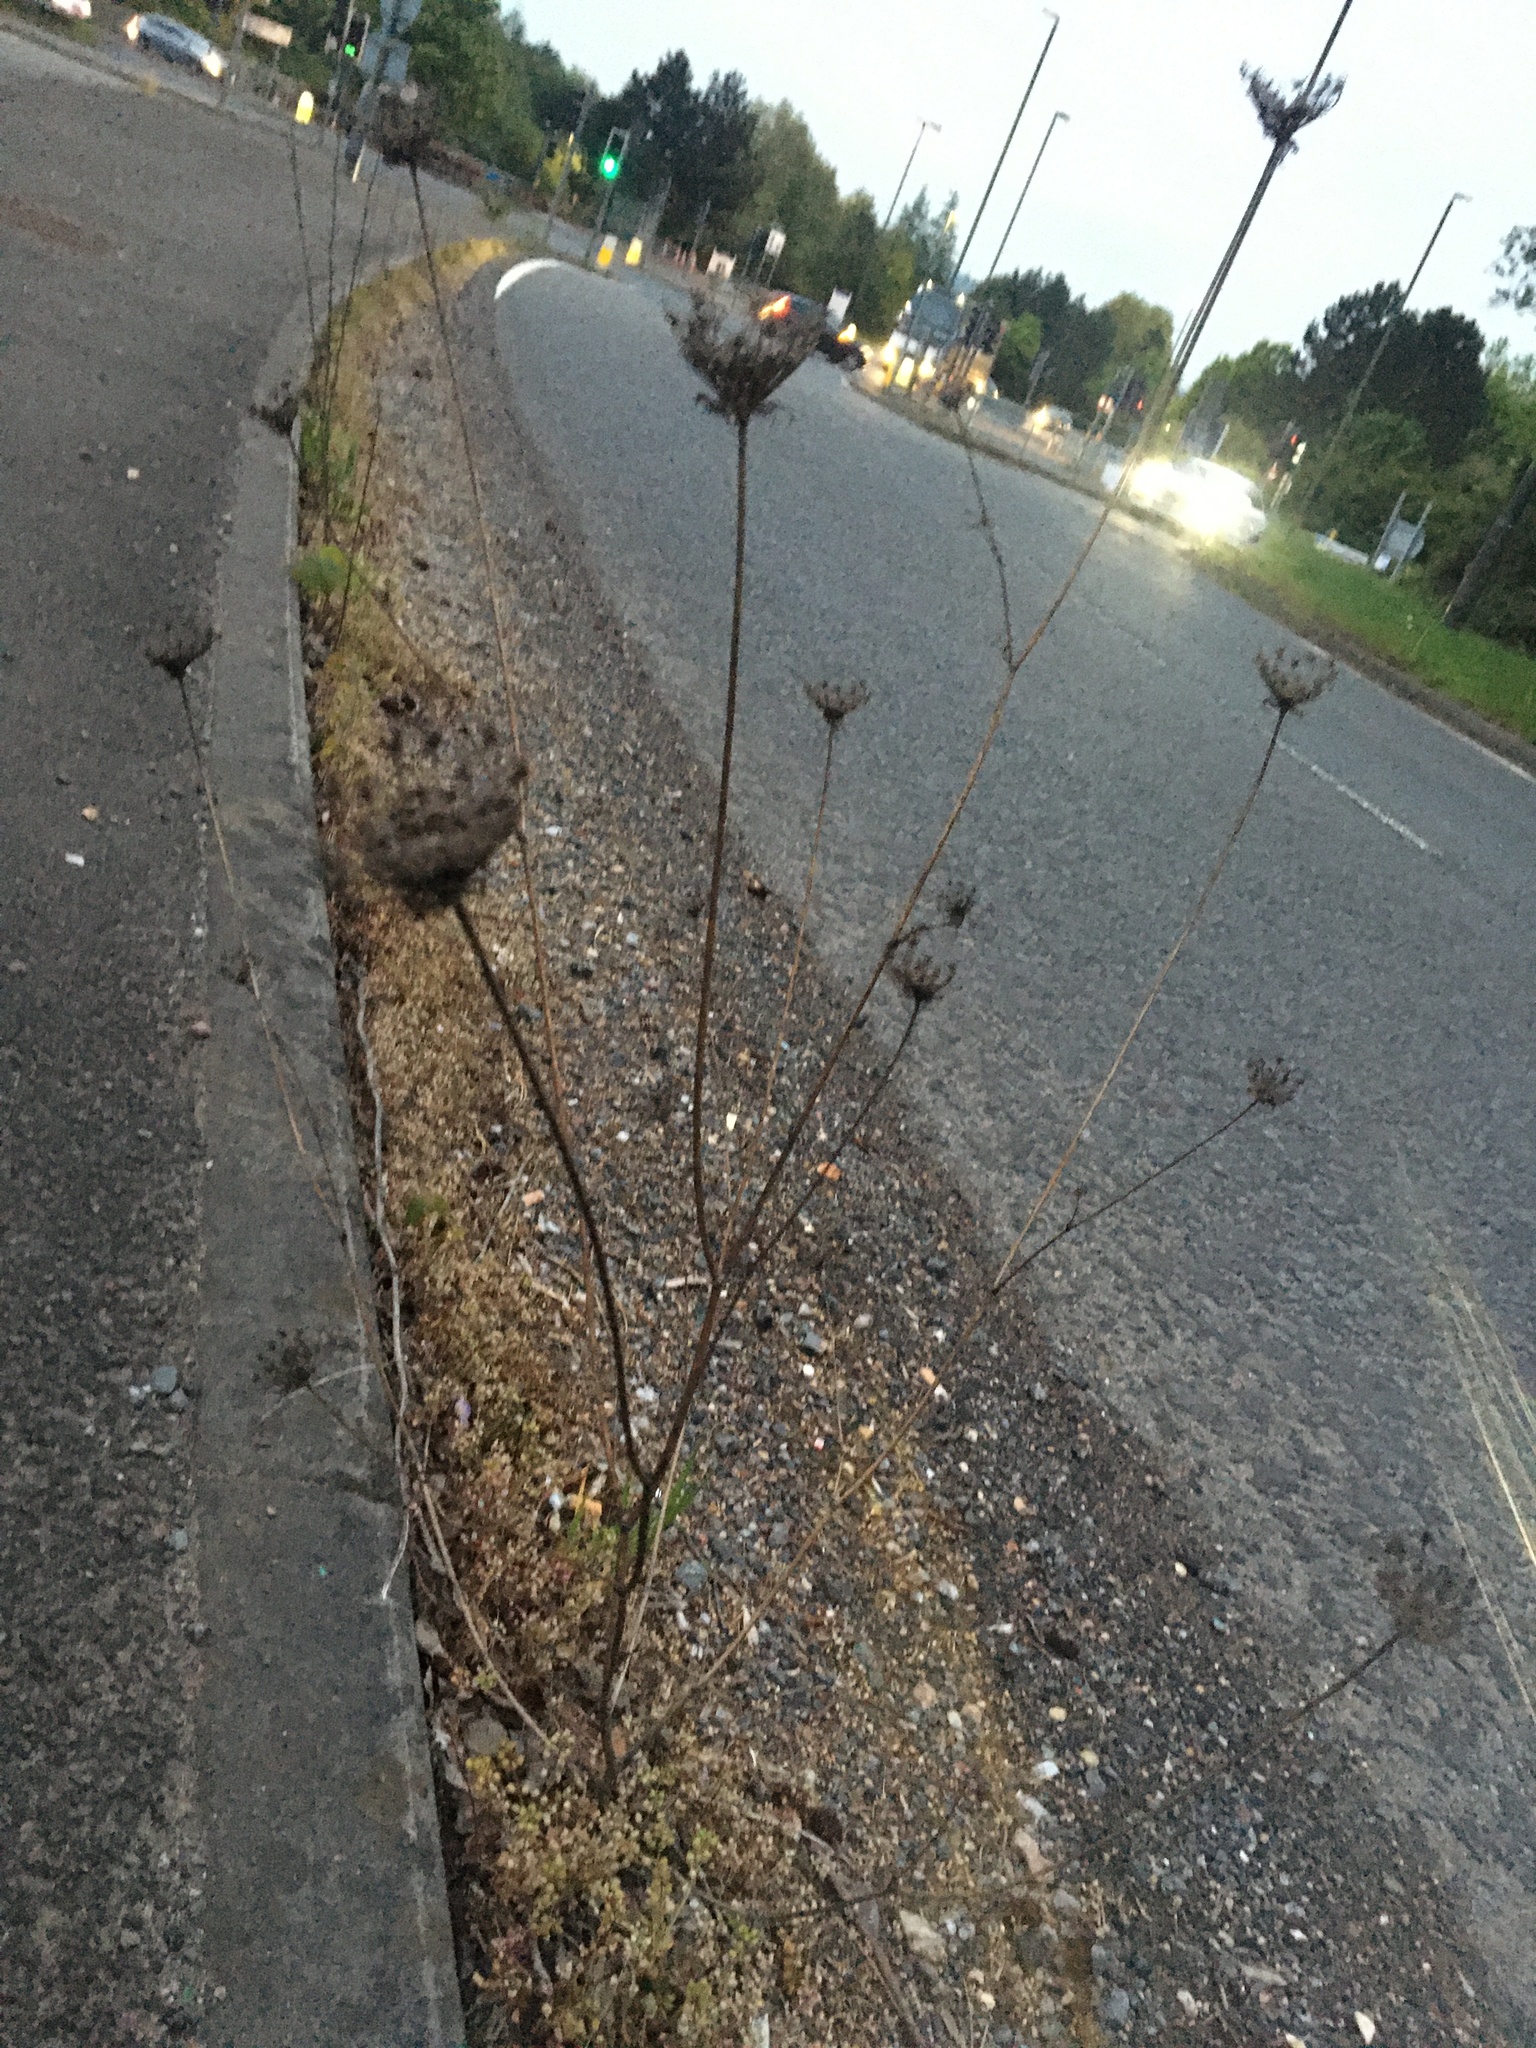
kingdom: Plantae
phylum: Tracheophyta
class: Magnoliopsida
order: Apiales
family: Apiaceae
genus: Daucus
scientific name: Daucus carota
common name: Wild carrot
